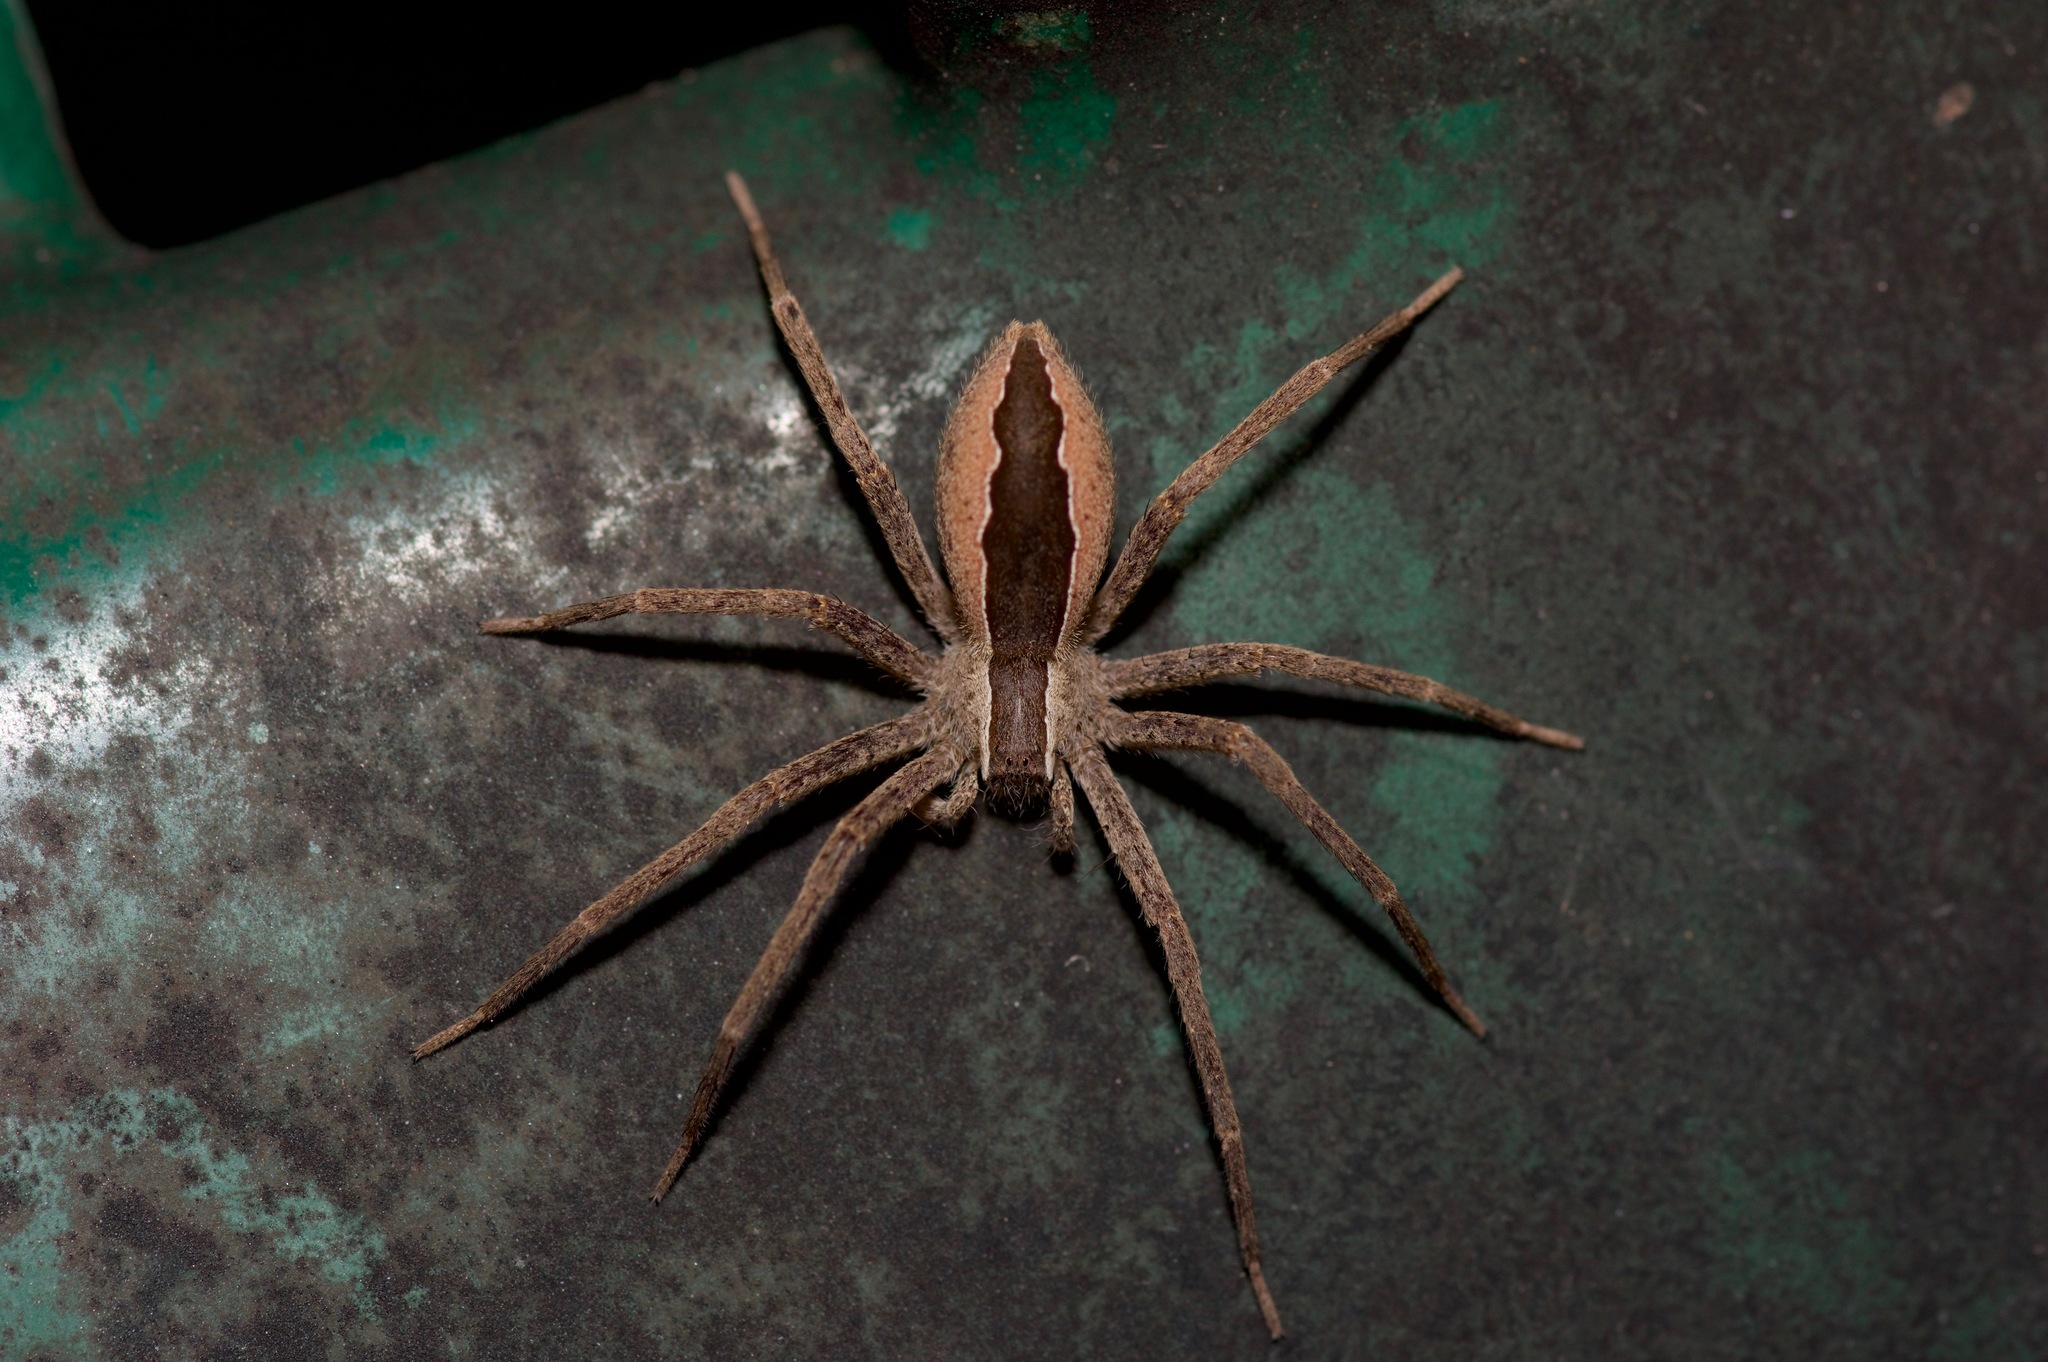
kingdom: Animalia
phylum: Arthropoda
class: Arachnida
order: Araneae
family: Pisauridae
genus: Pisaurina
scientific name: Pisaurina mira
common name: American nursery web spider
